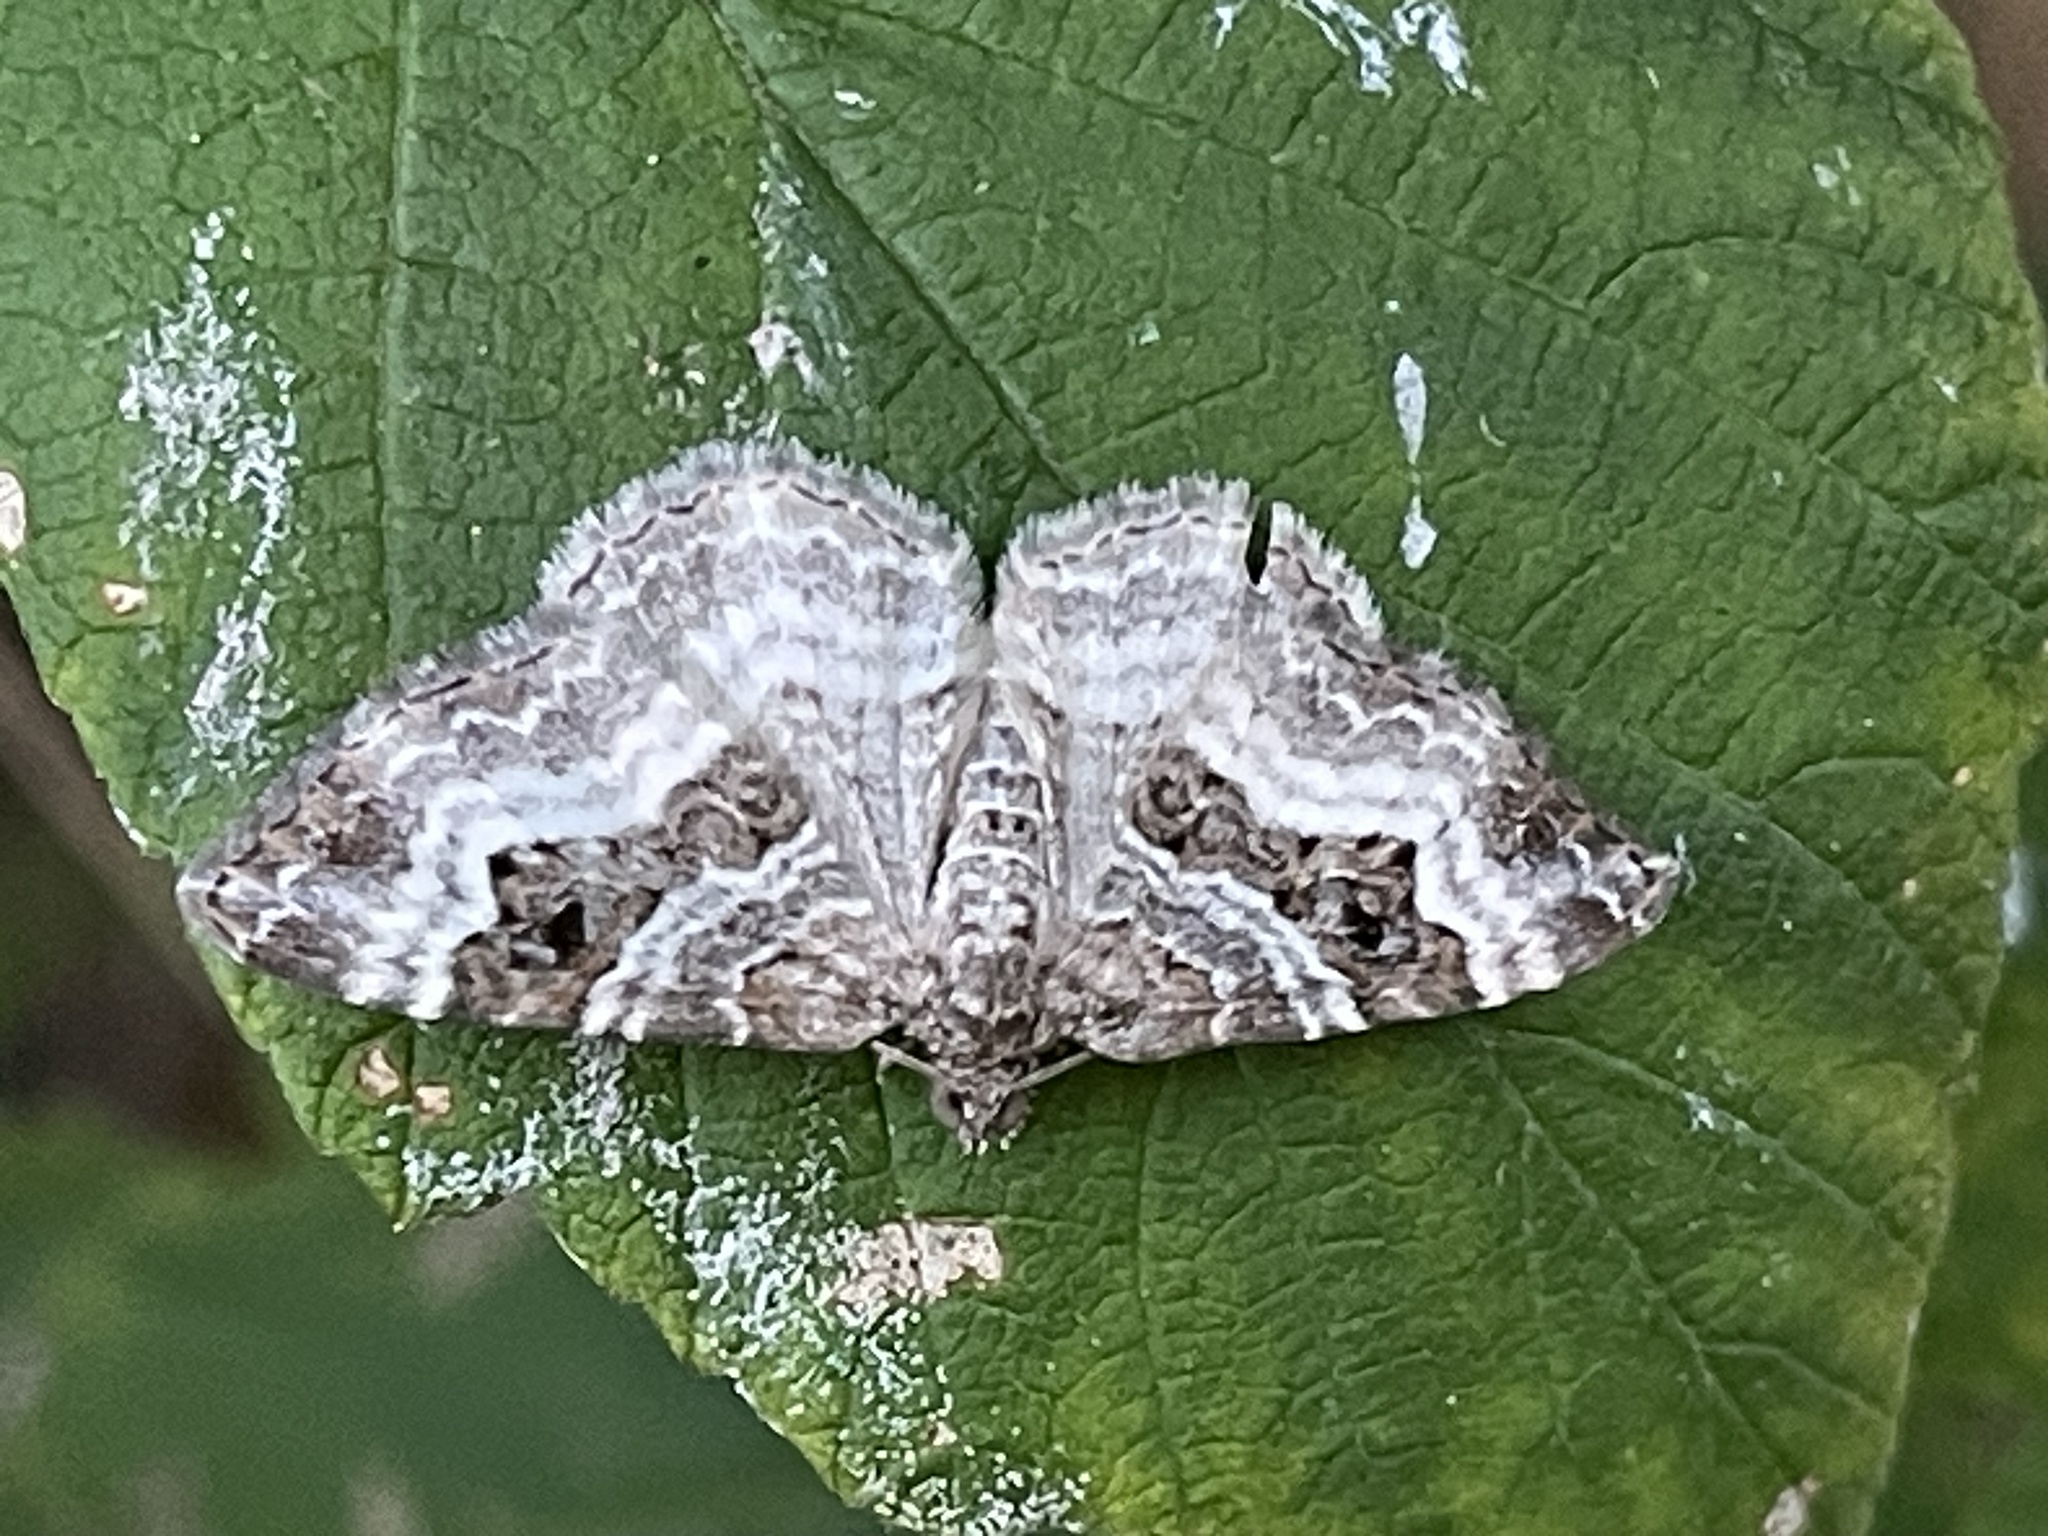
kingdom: Animalia
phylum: Arthropoda
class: Insecta
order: Lepidoptera
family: Geometridae
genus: Epirrhoe
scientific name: Epirrhoe alternata
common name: Common carpet
